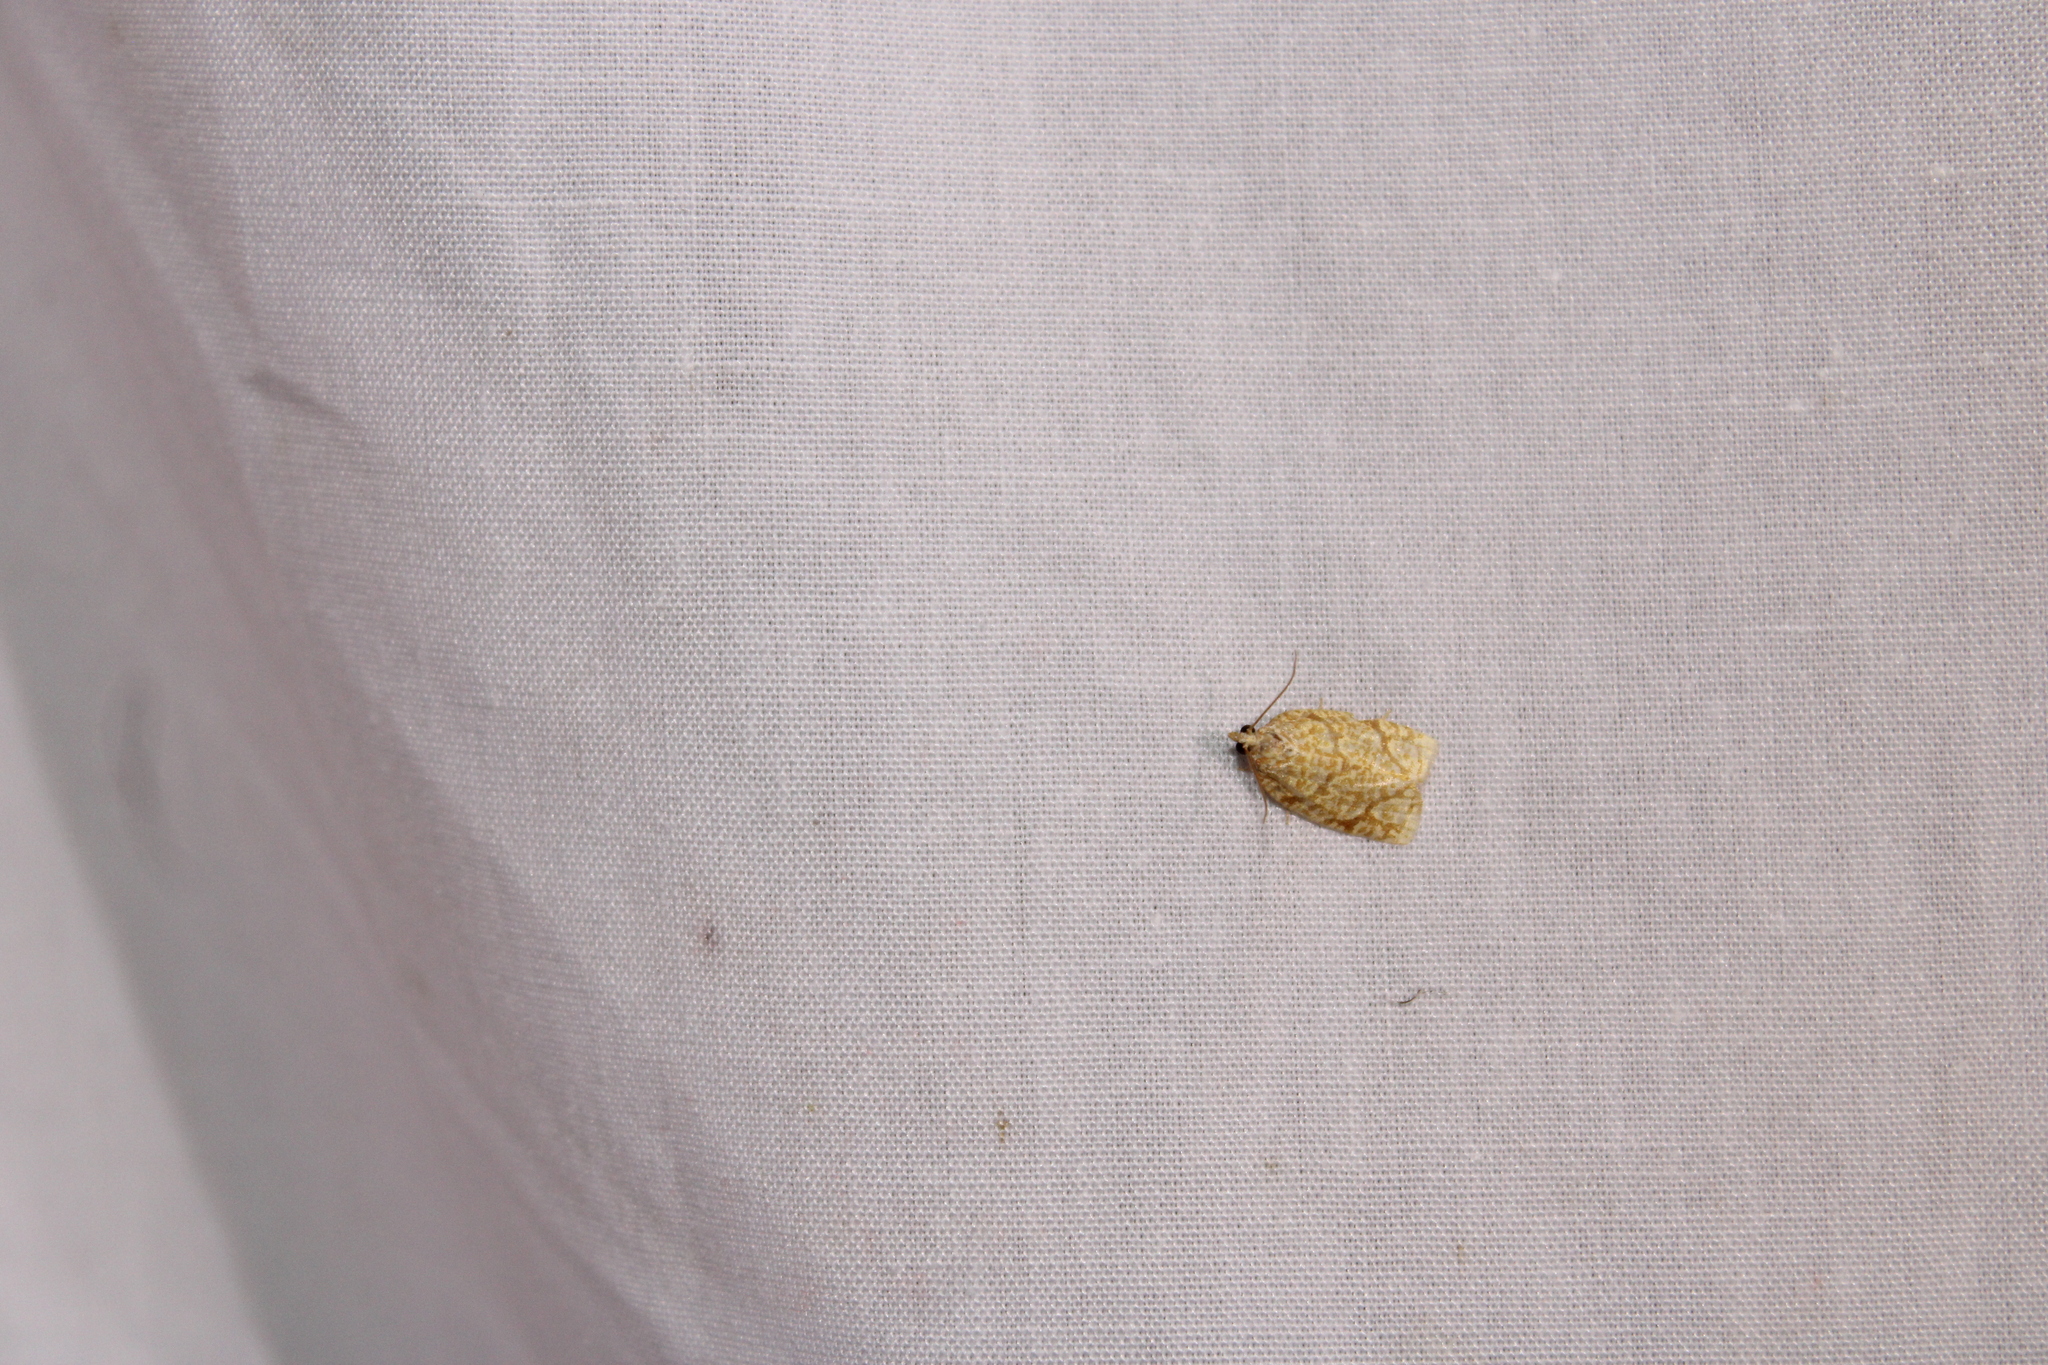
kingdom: Animalia
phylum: Arthropoda
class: Insecta
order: Lepidoptera
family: Tortricidae
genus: Argyrotaenia
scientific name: Argyrotaenia quercifoliana
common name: Yellow-winged oak leafroller moth
